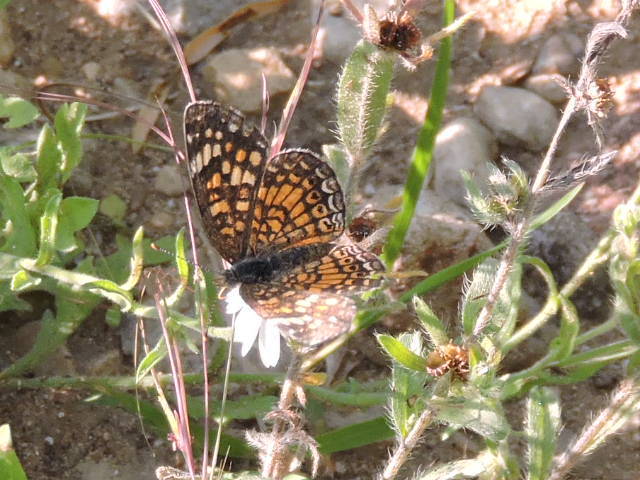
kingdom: Animalia
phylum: Arthropoda
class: Insecta
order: Lepidoptera
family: Nymphalidae
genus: Phyciodes
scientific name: Phyciodes phaon
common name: Phaon crescent
